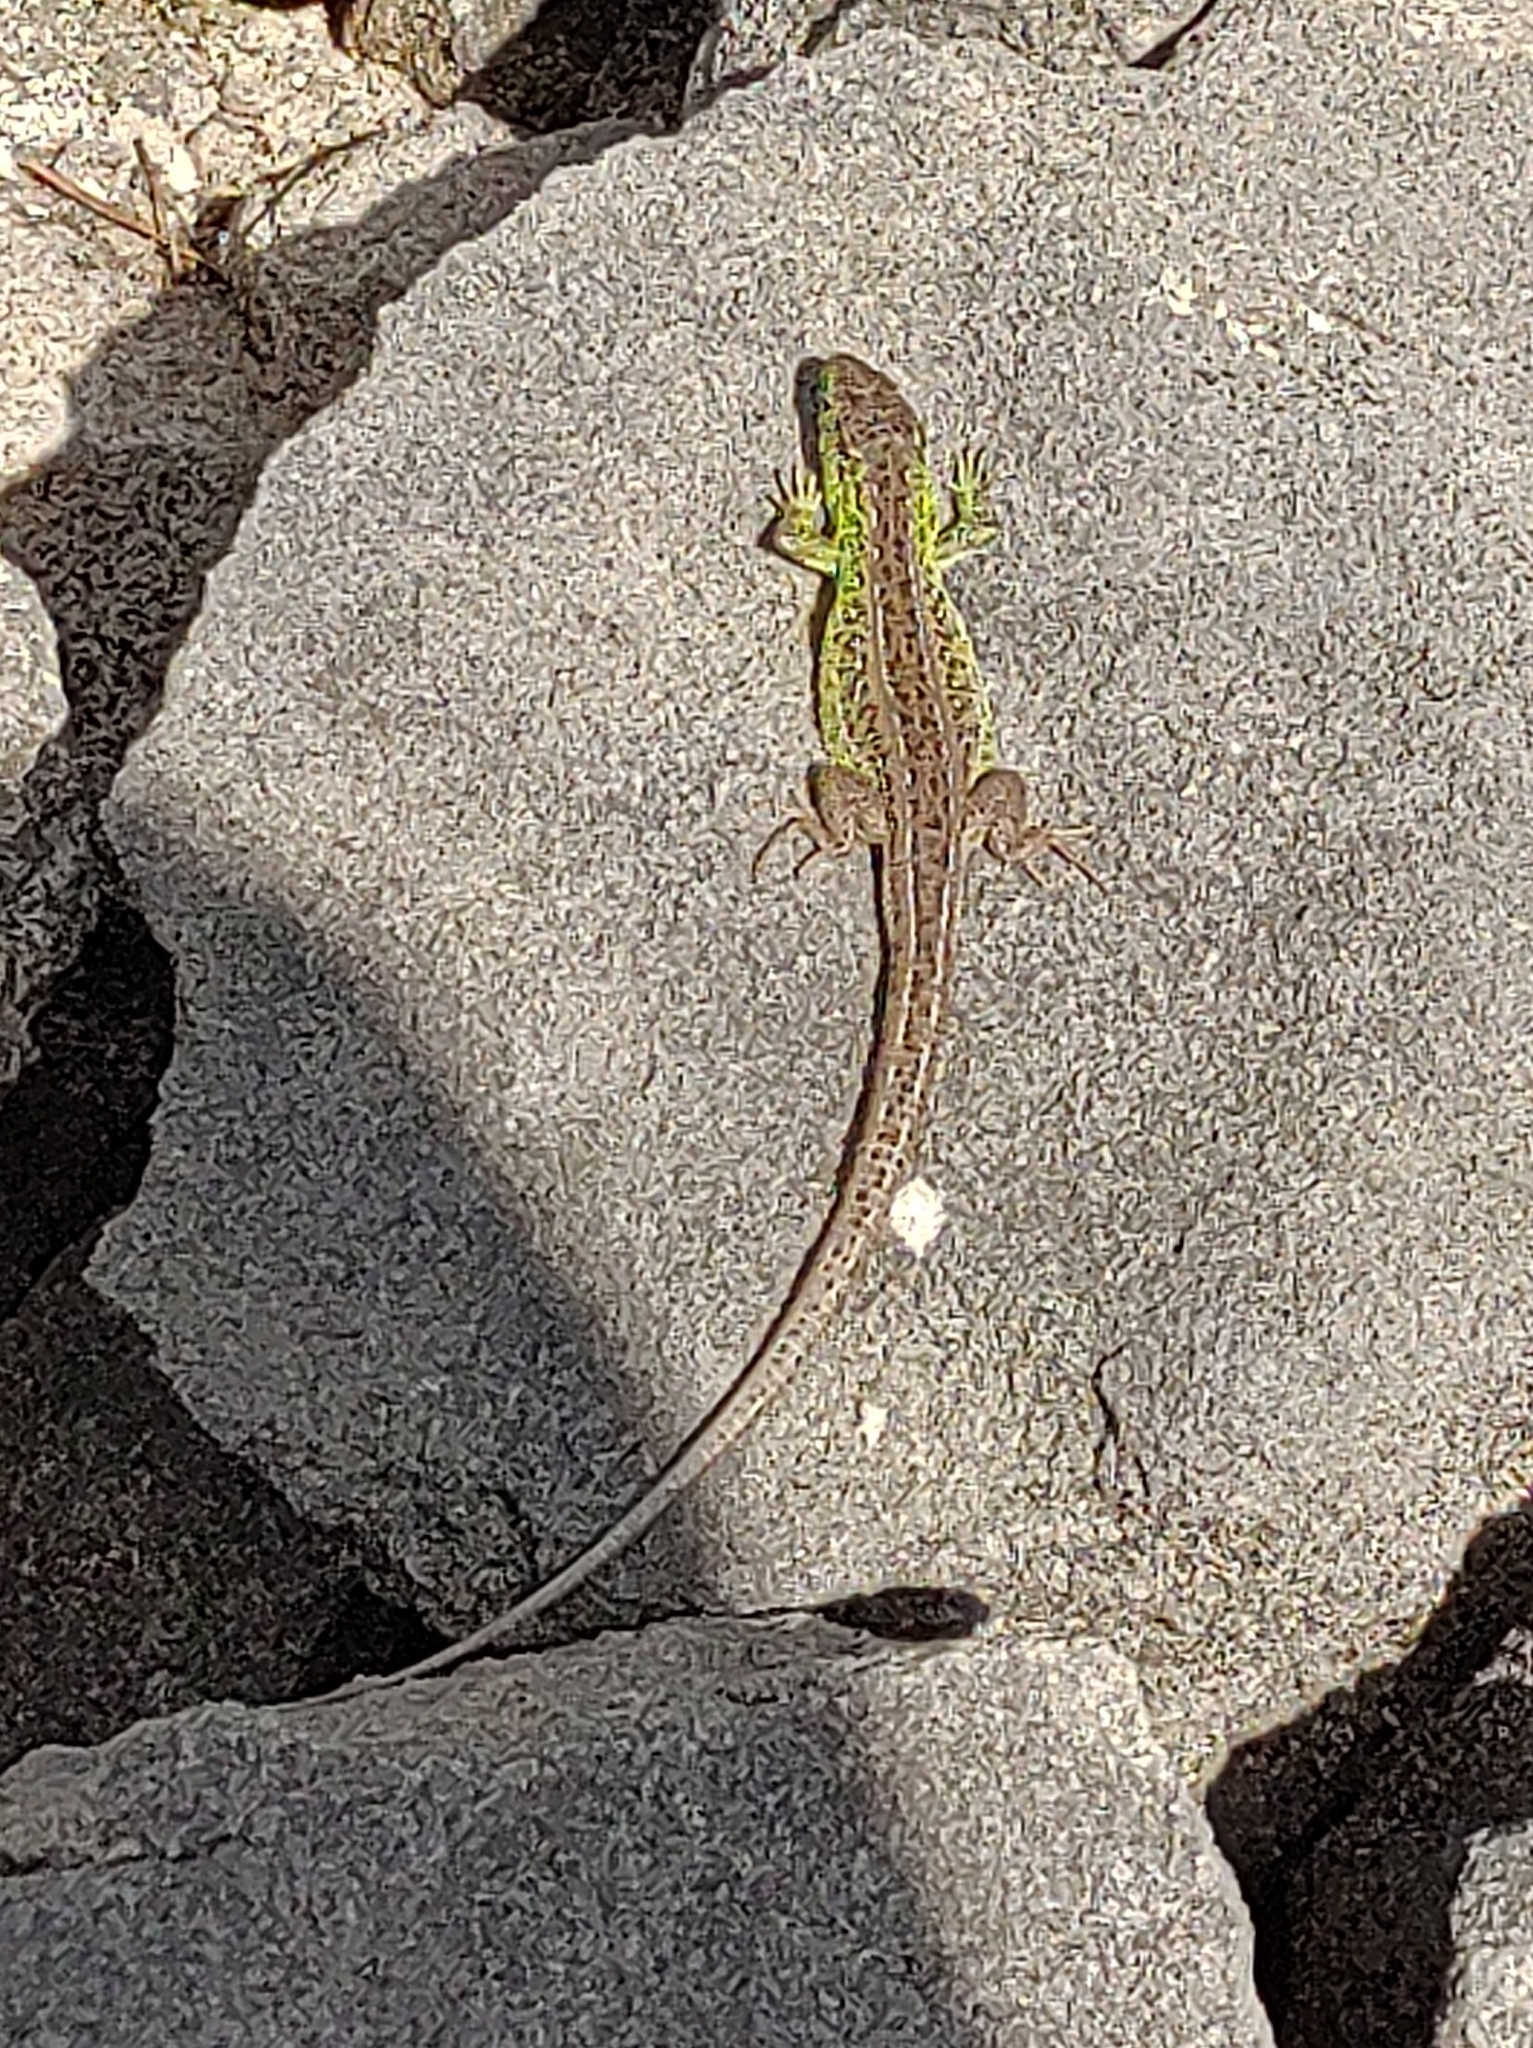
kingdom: Animalia
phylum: Chordata
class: Squamata
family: Lacertidae
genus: Lacerta
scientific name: Lacerta agilis
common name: Sand lizard
